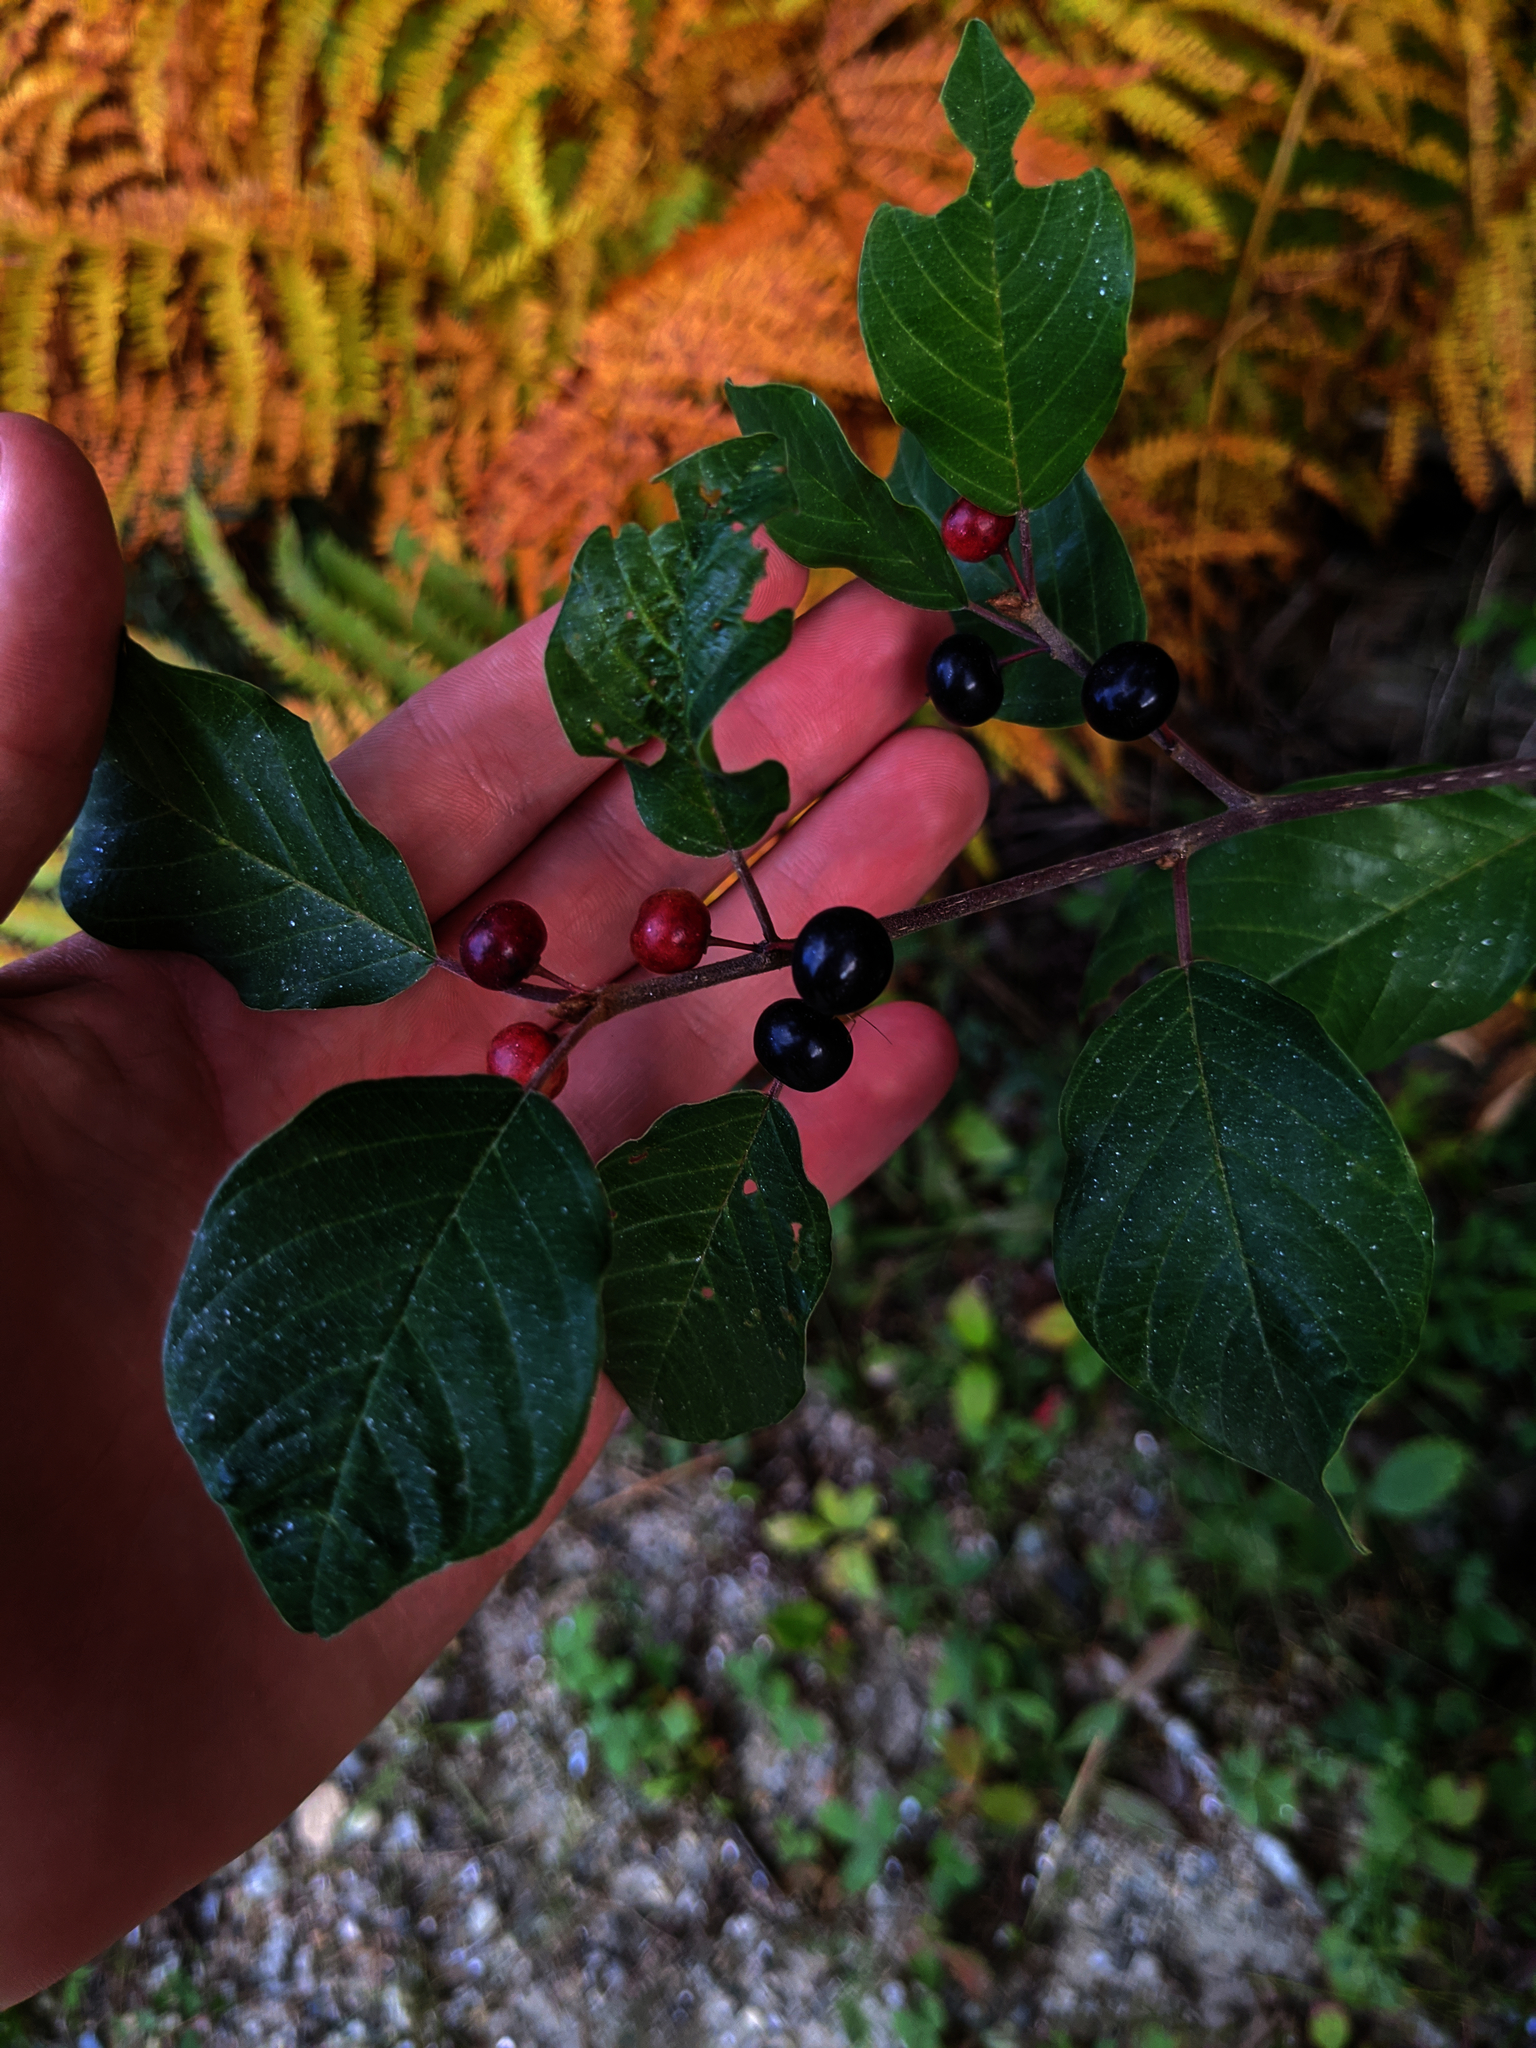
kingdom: Plantae
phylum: Tracheophyta
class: Magnoliopsida
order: Rosales
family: Rhamnaceae
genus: Frangula
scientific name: Frangula alnus
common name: Alder buckthorn
